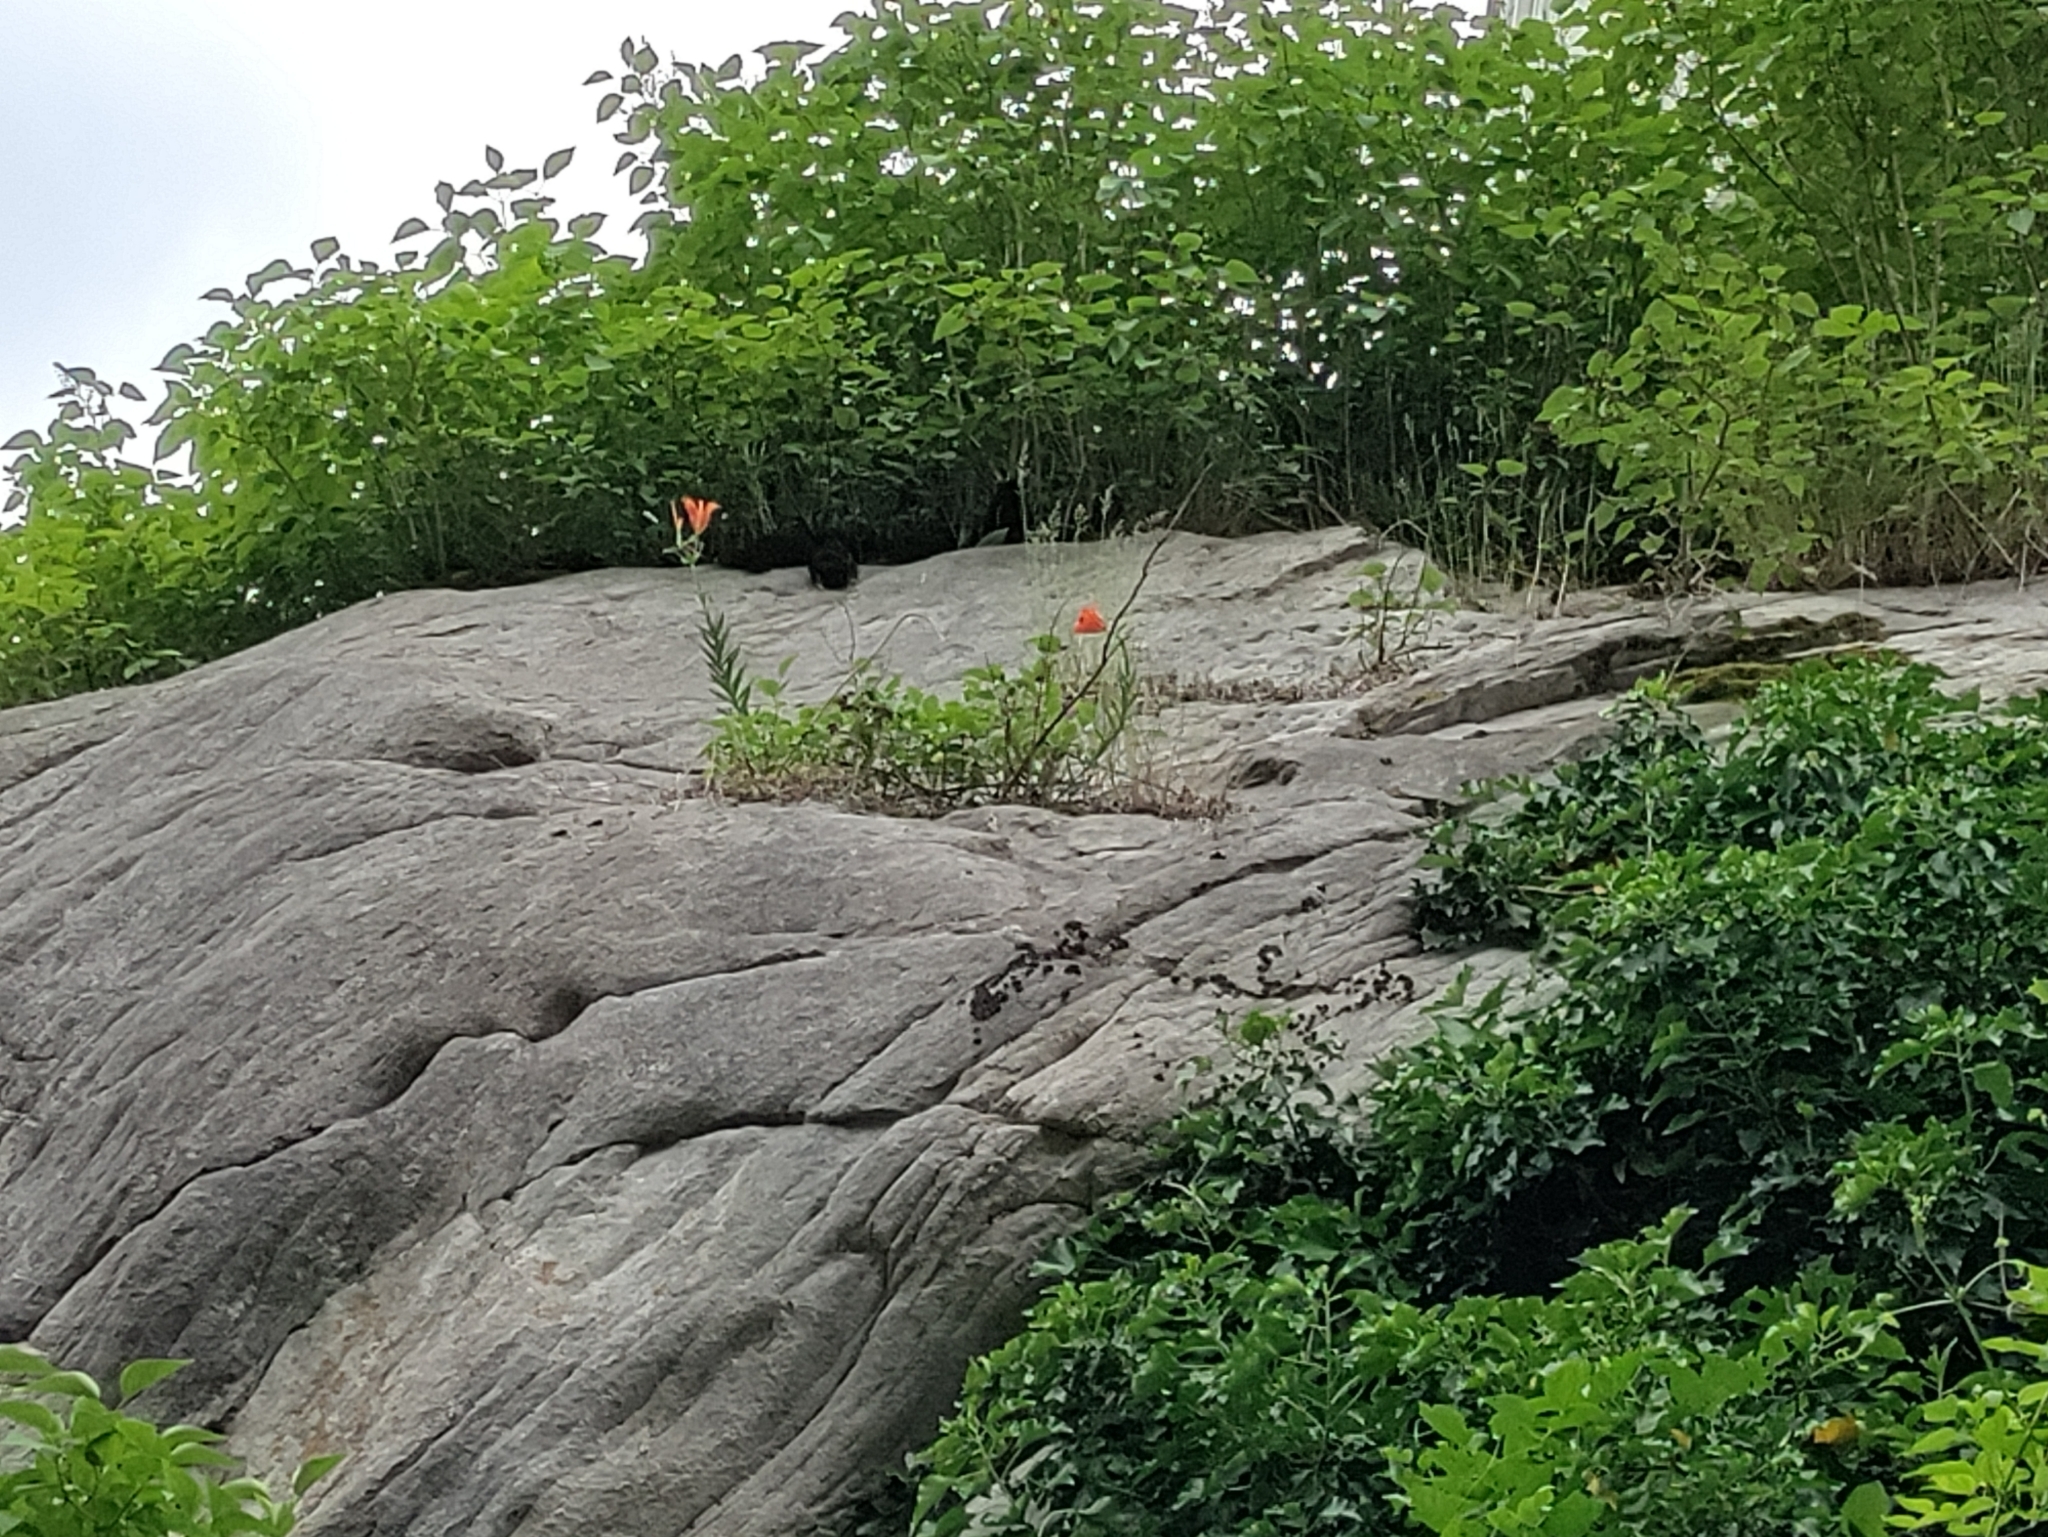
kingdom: Plantae
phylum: Tracheophyta
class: Liliopsida
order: Liliales
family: Liliaceae
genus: Lilium
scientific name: Lilium bulbiferum
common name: Orange lily
